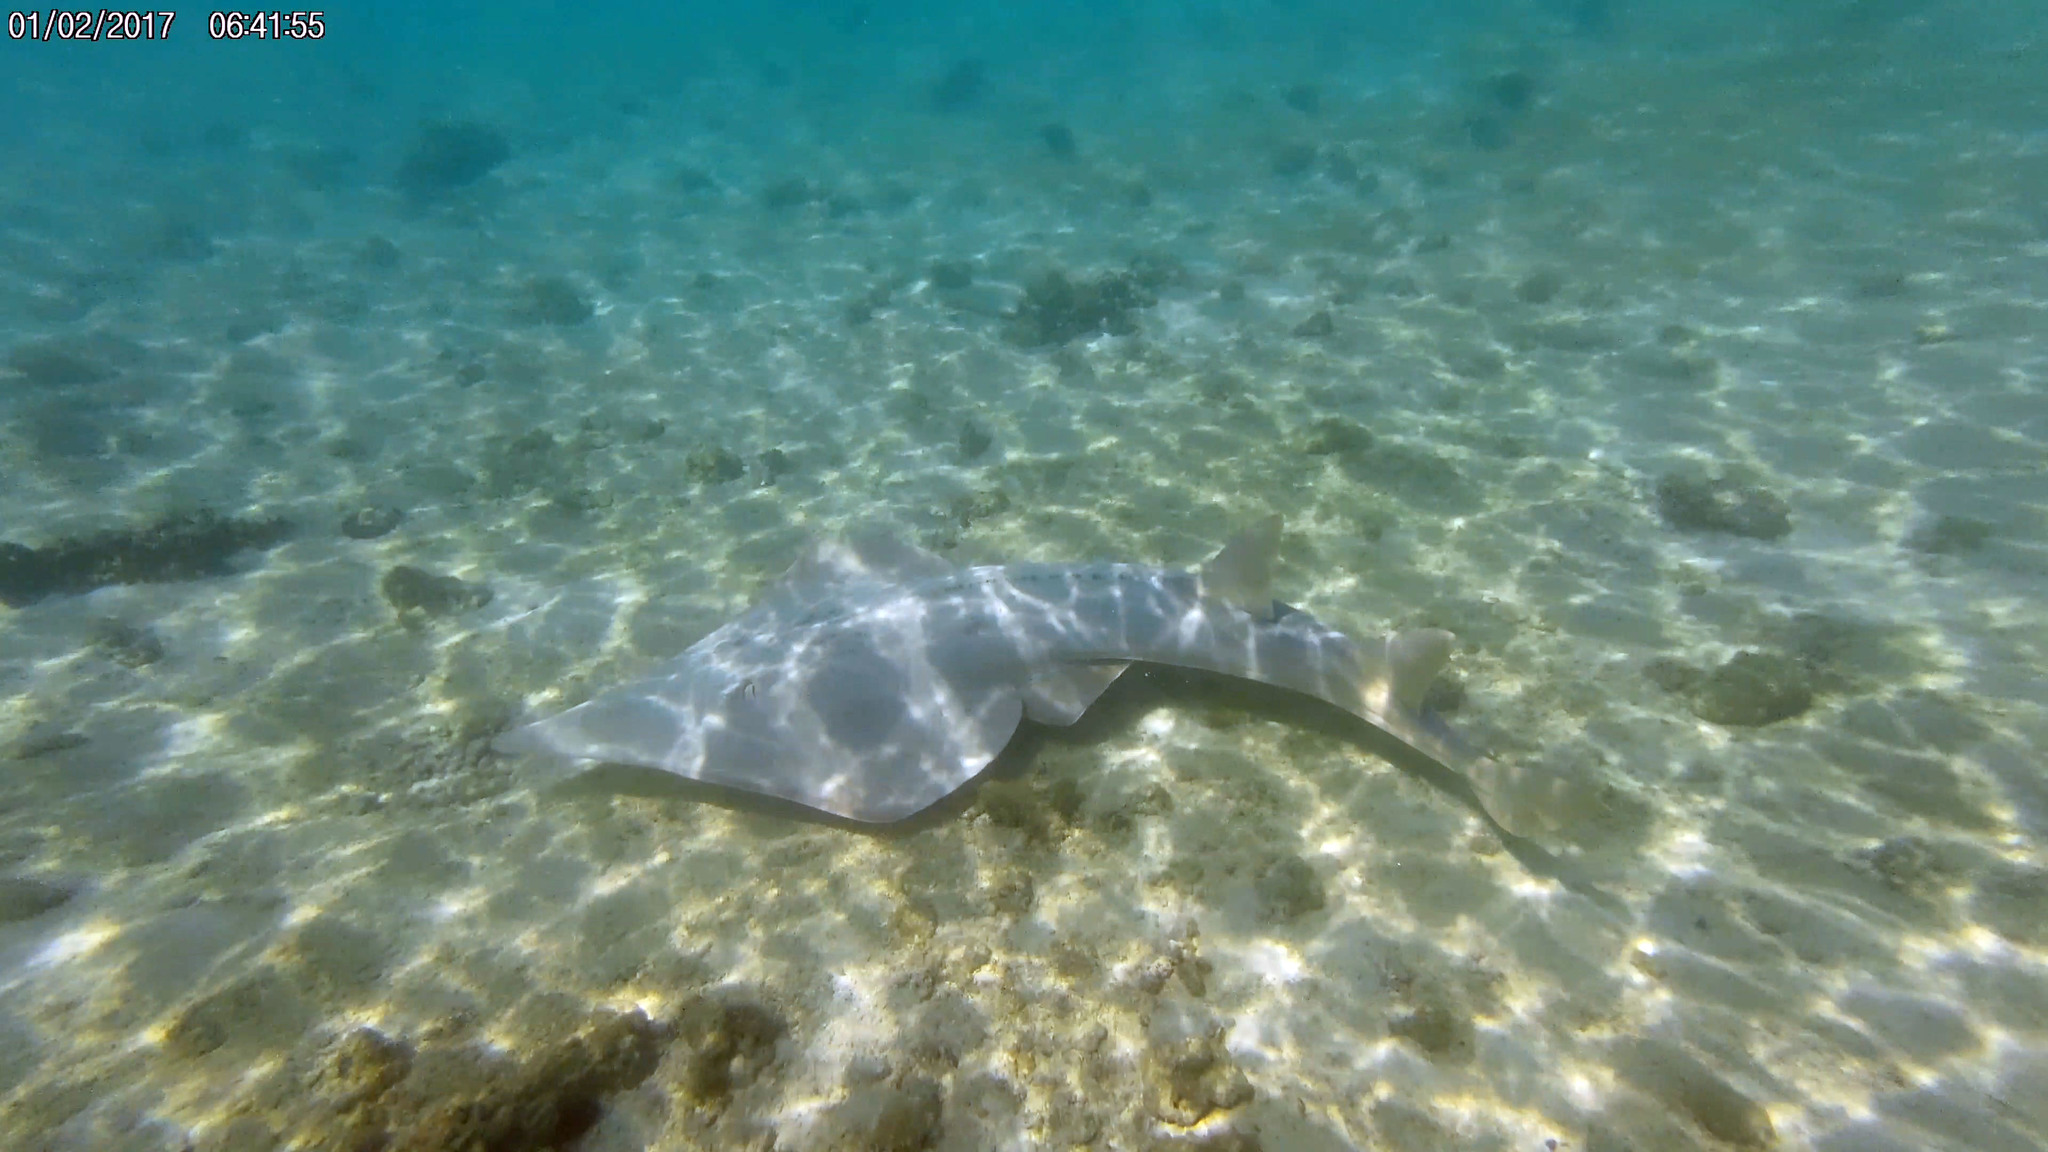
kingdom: Animalia
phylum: Chordata
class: Elasmobranchii
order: Rhinopristiformes
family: Glaucostegidae
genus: Glaucostegus
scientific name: Glaucostegus typus
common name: Giant shovelnose ray
